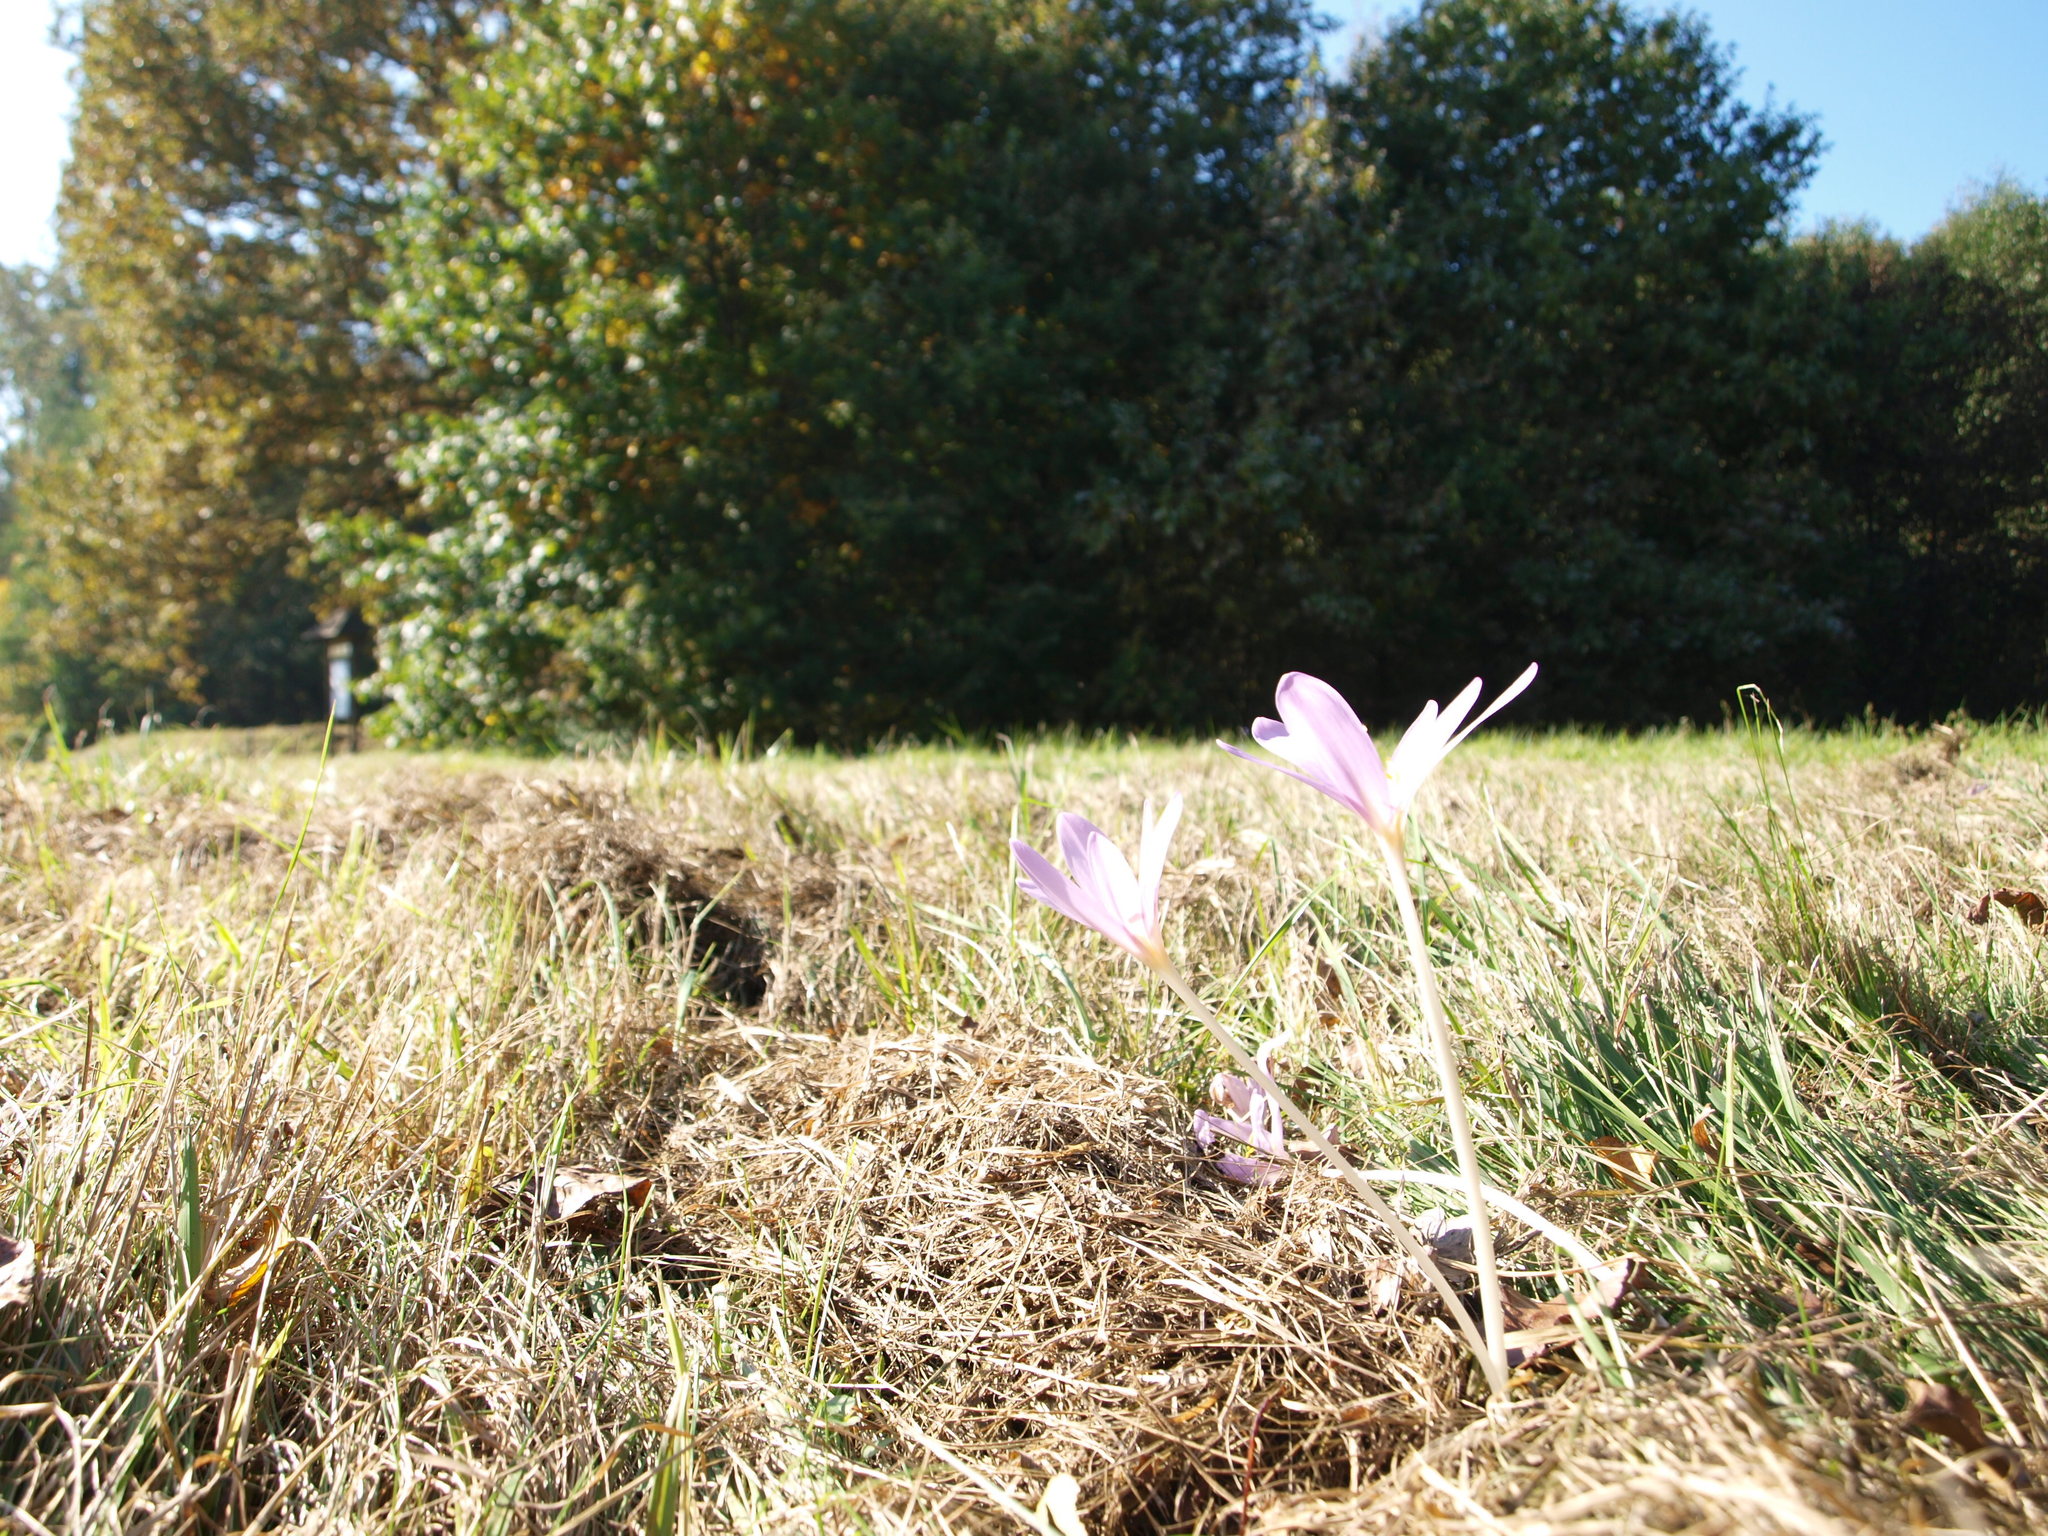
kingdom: Plantae
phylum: Tracheophyta
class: Liliopsida
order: Liliales
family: Colchicaceae
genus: Colchicum
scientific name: Colchicum autumnale
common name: Autumn crocus
